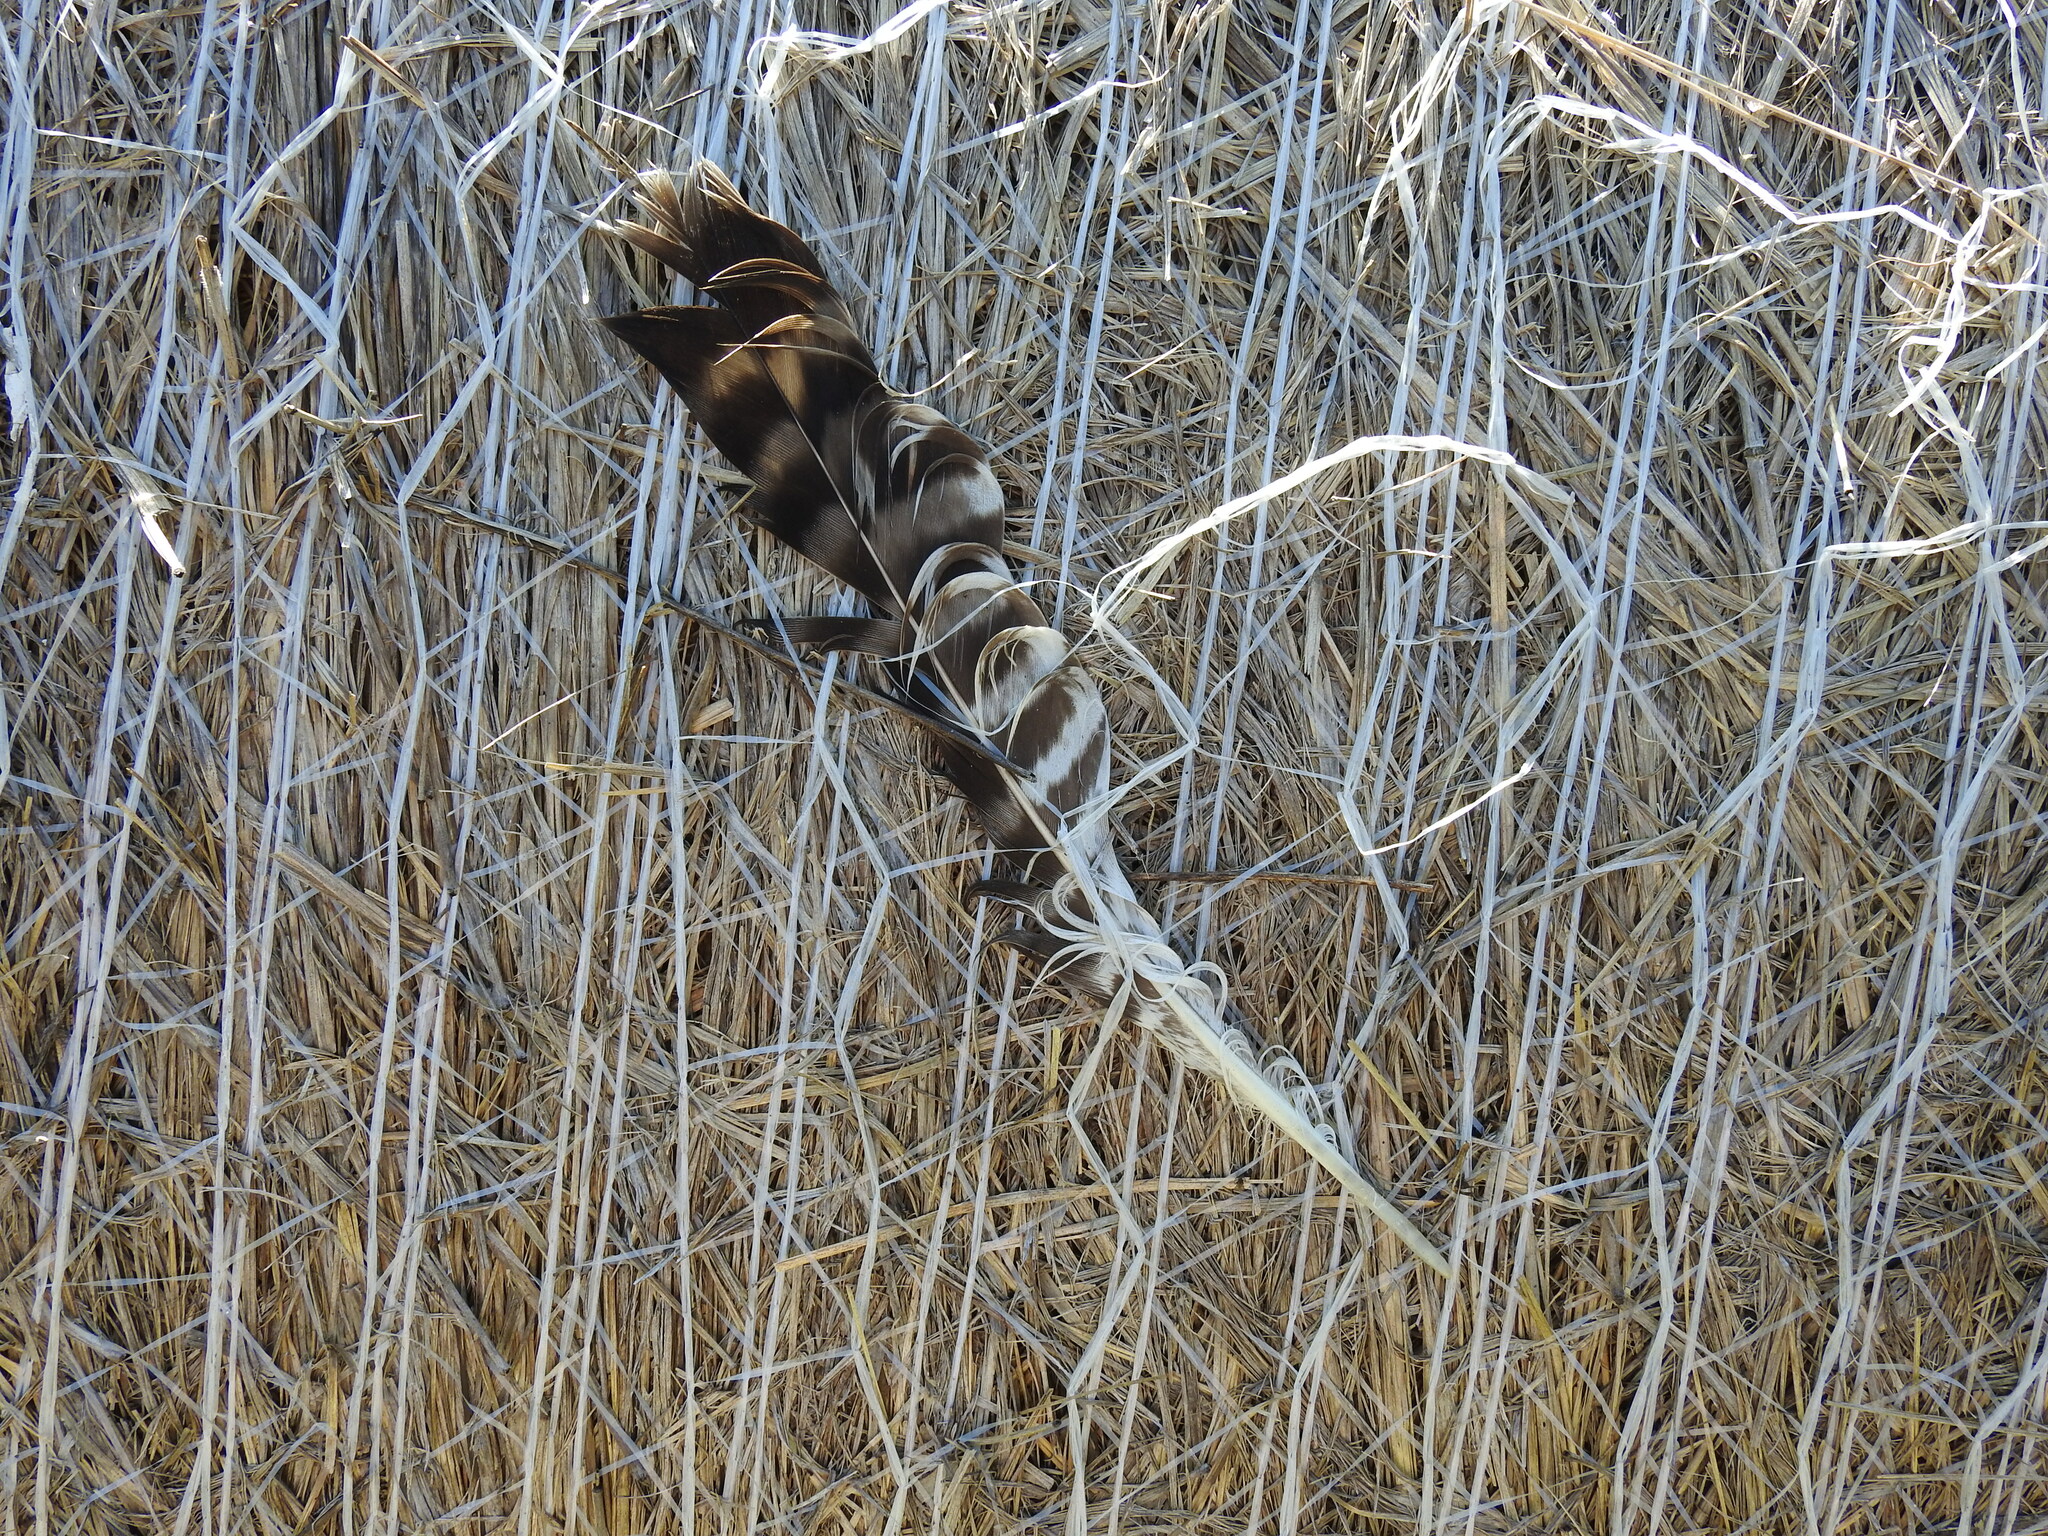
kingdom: Animalia
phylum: Chordata
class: Aves
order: Accipitriformes
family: Accipitridae
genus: Buteo
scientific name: Buteo buteo
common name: Common buzzard
